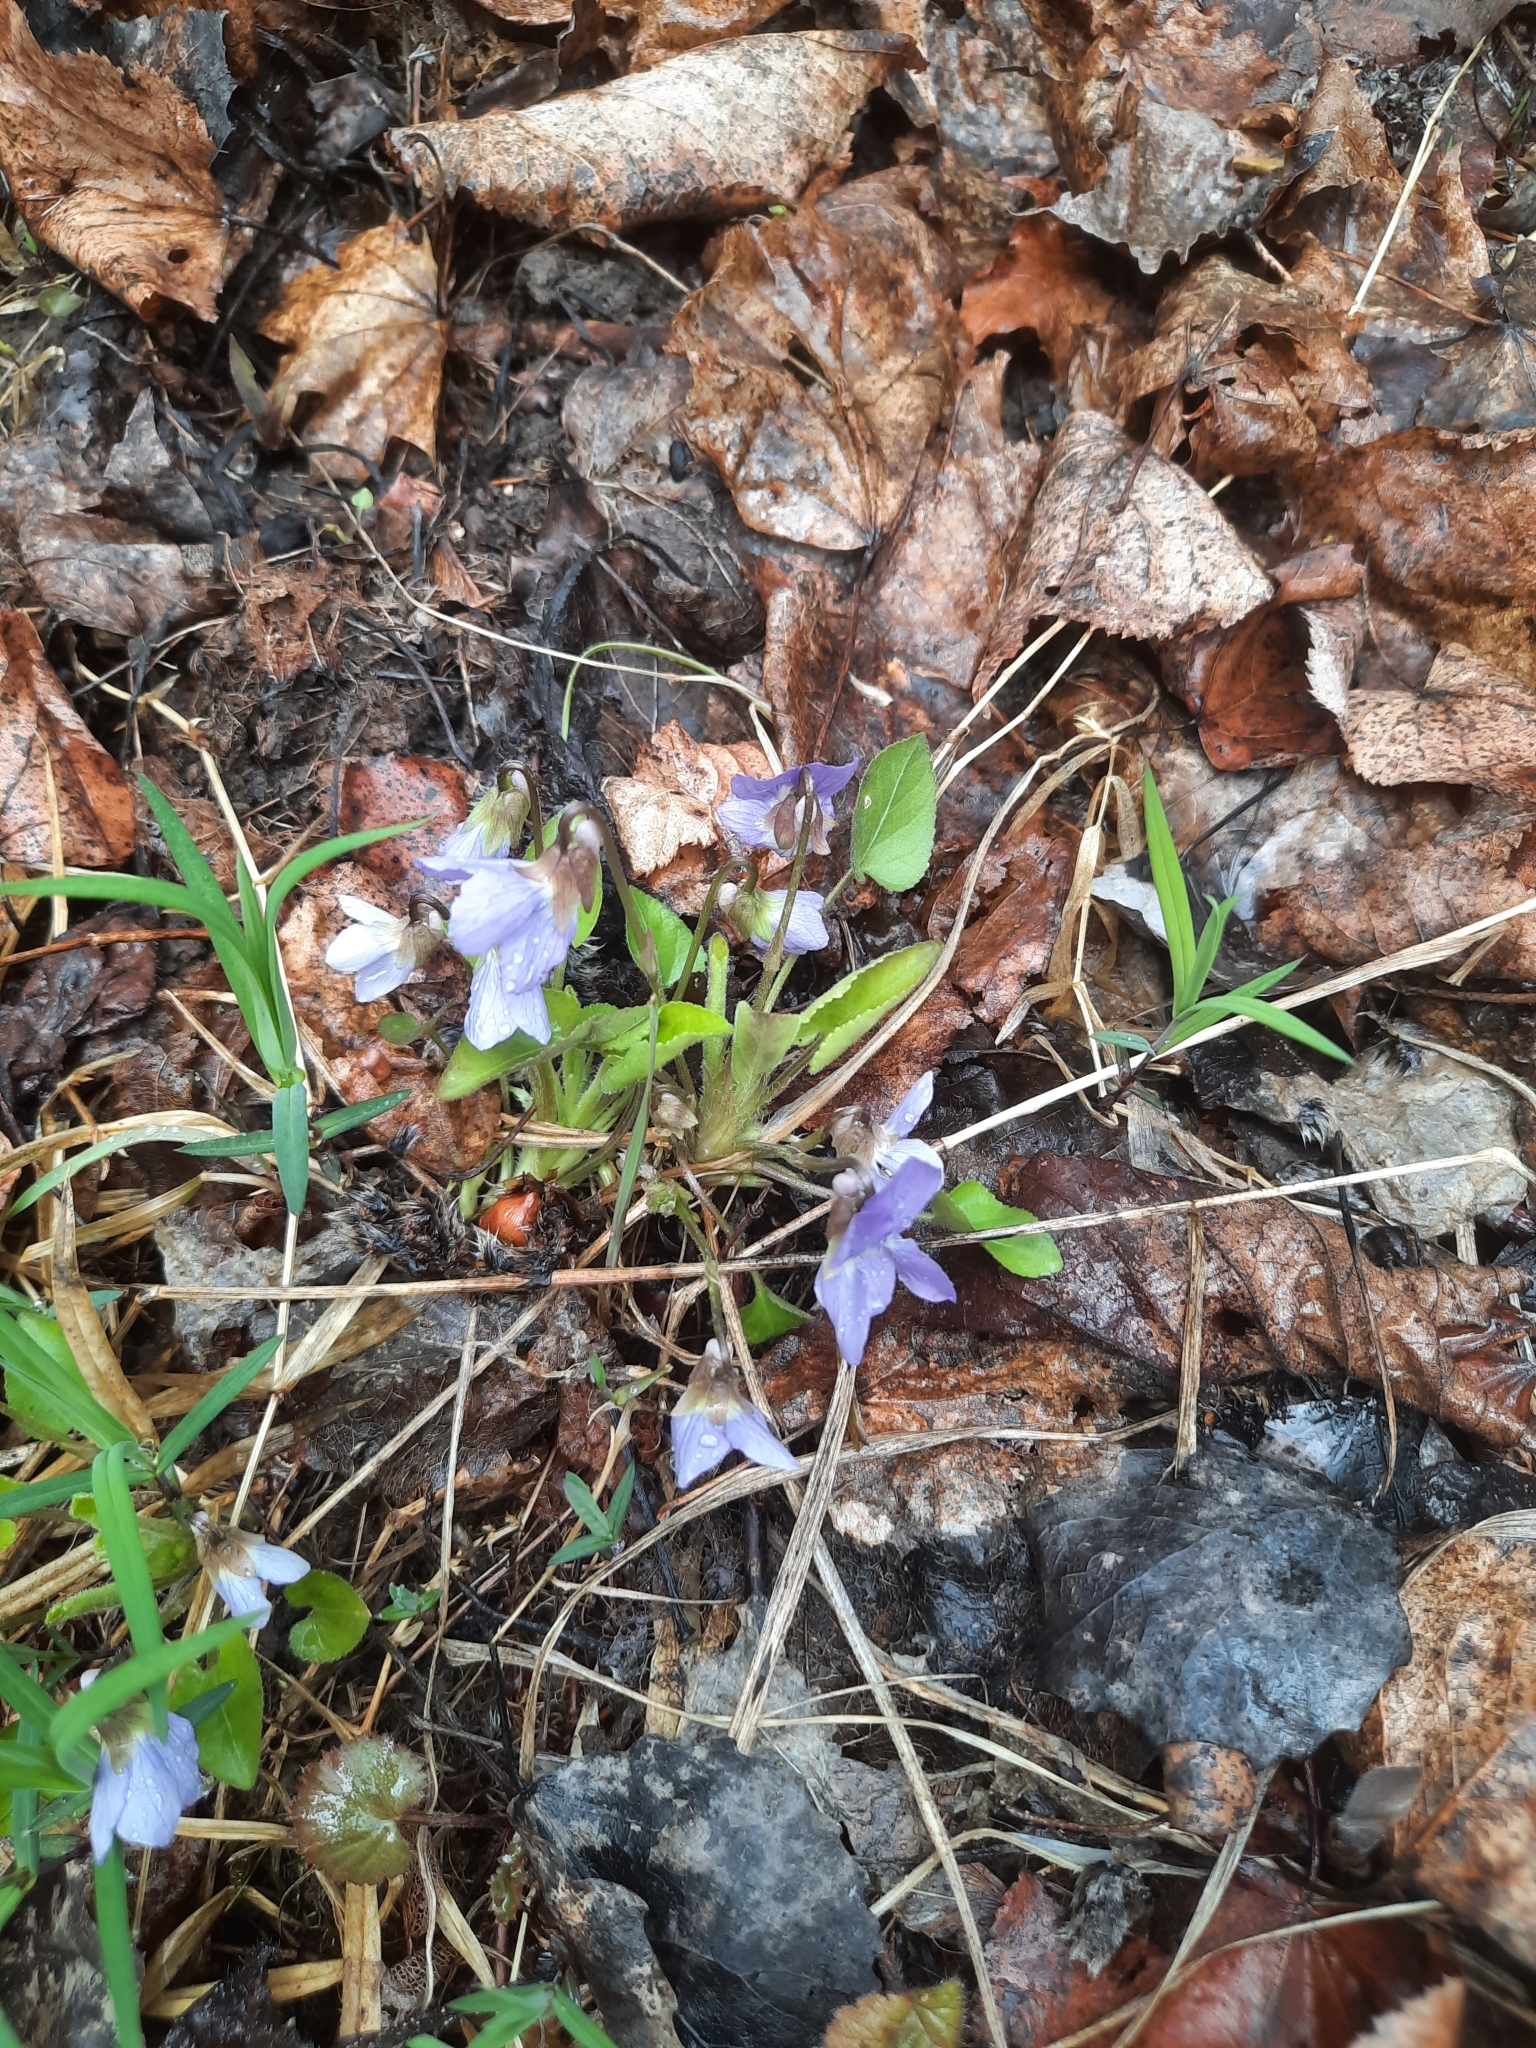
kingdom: Plantae
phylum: Tracheophyta
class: Magnoliopsida
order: Malpighiales
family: Violaceae
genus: Viola
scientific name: Viola collina
